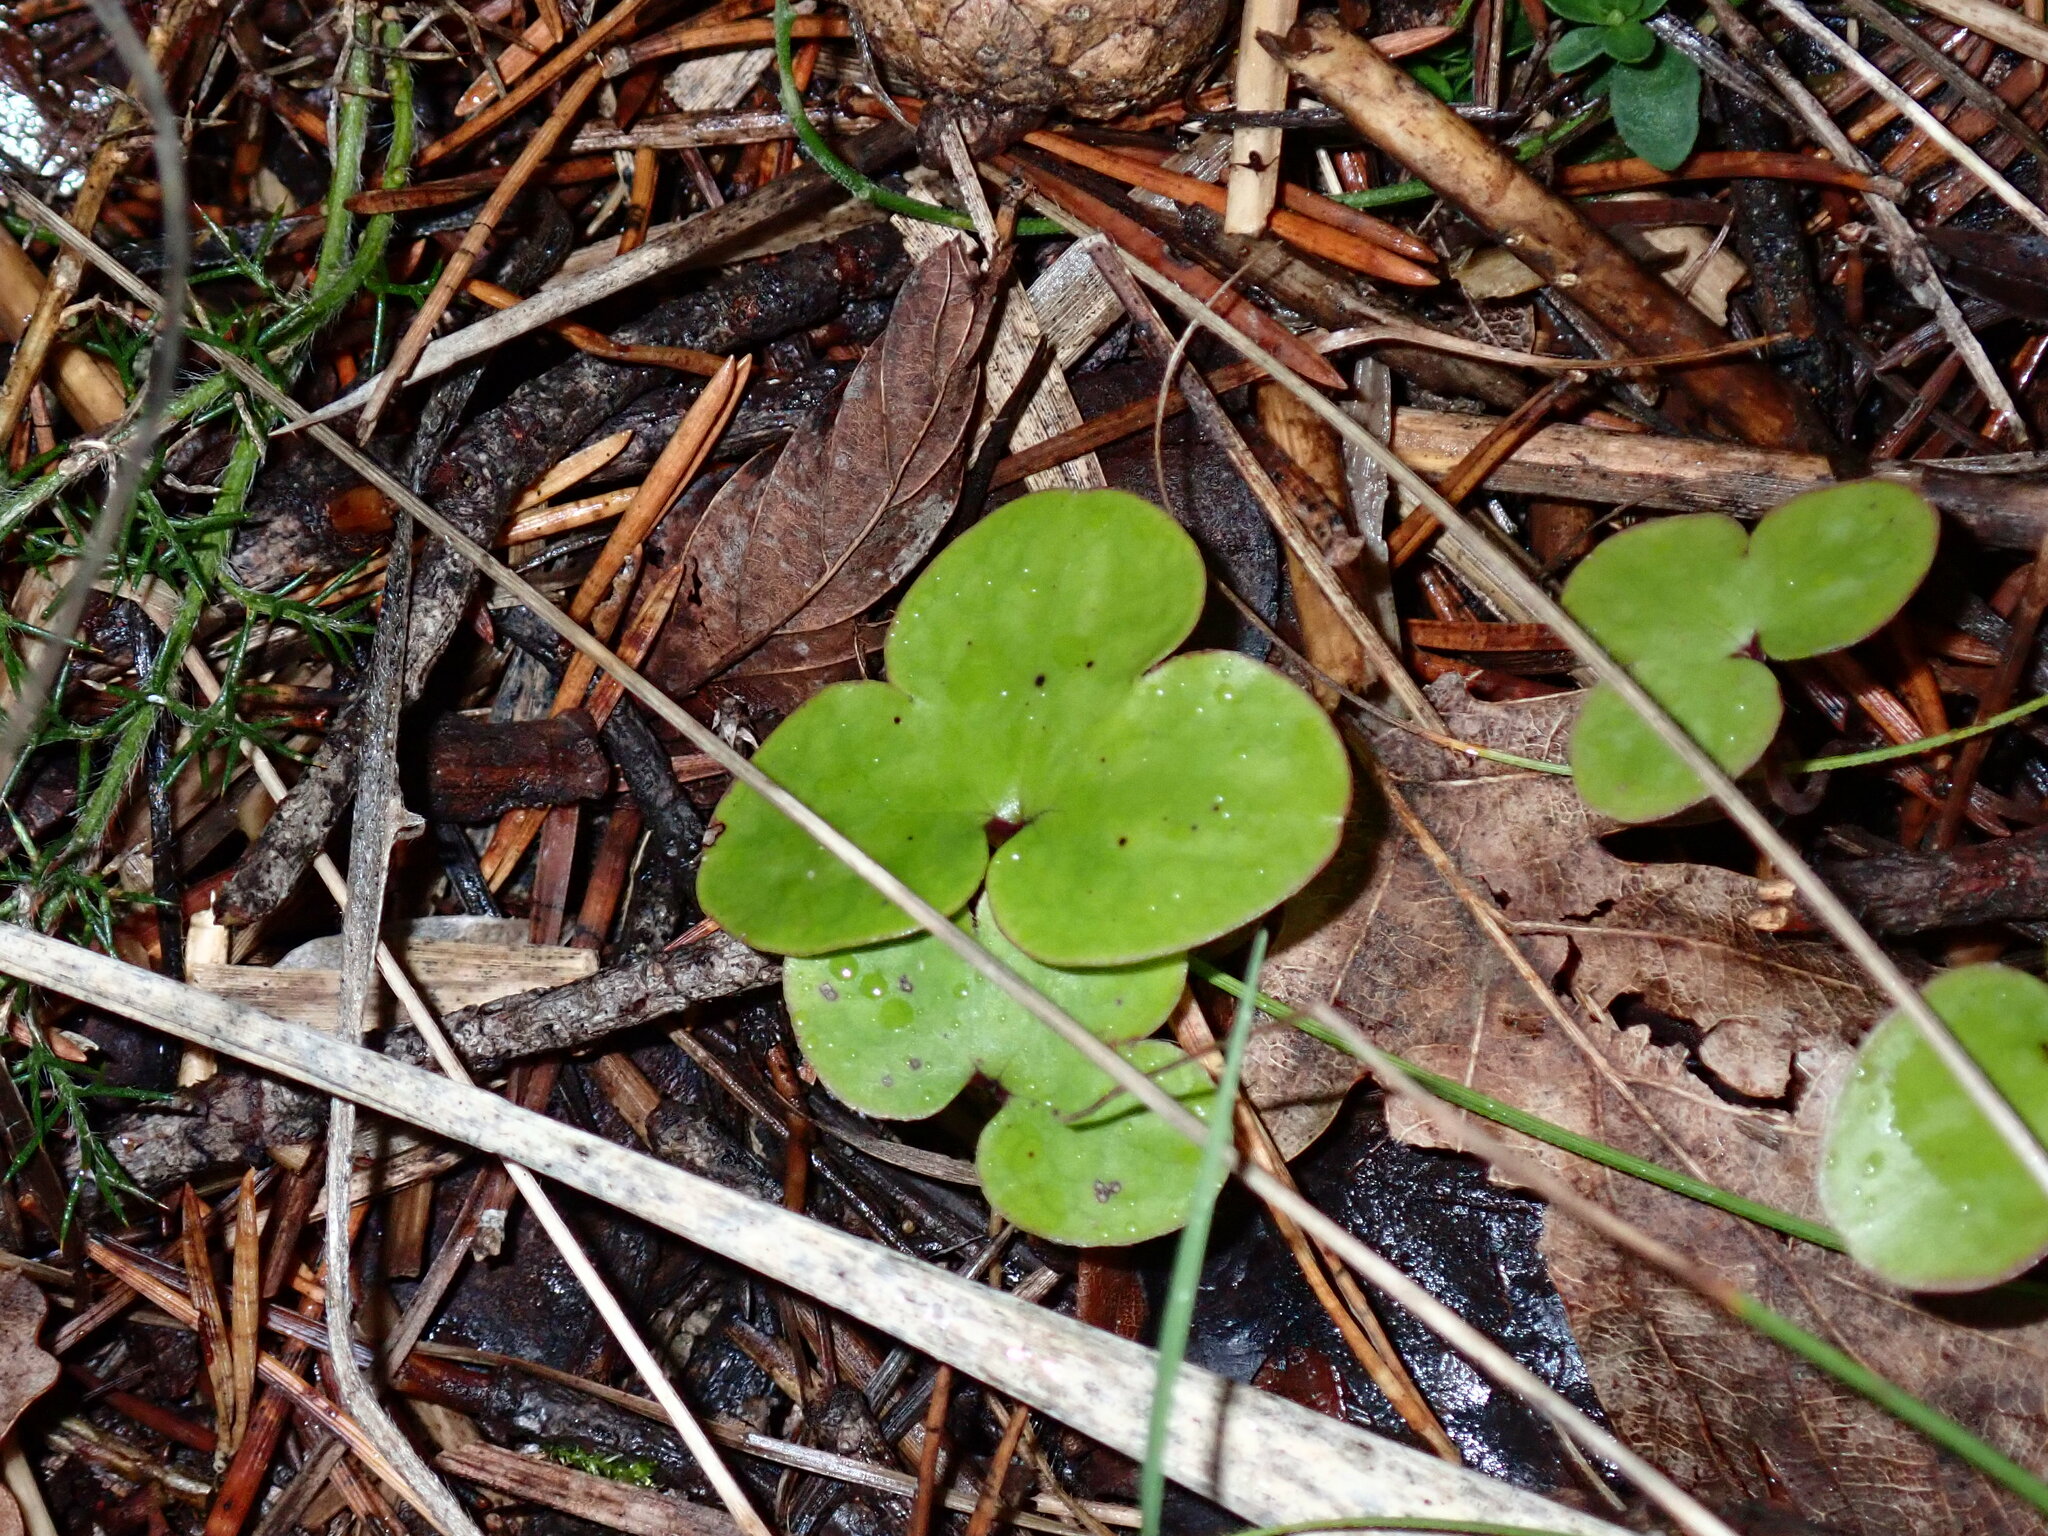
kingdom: Plantae
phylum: Tracheophyta
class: Magnoliopsida
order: Ranunculales
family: Ranunculaceae
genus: Hepatica
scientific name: Hepatica nobilis
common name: Liverleaf
